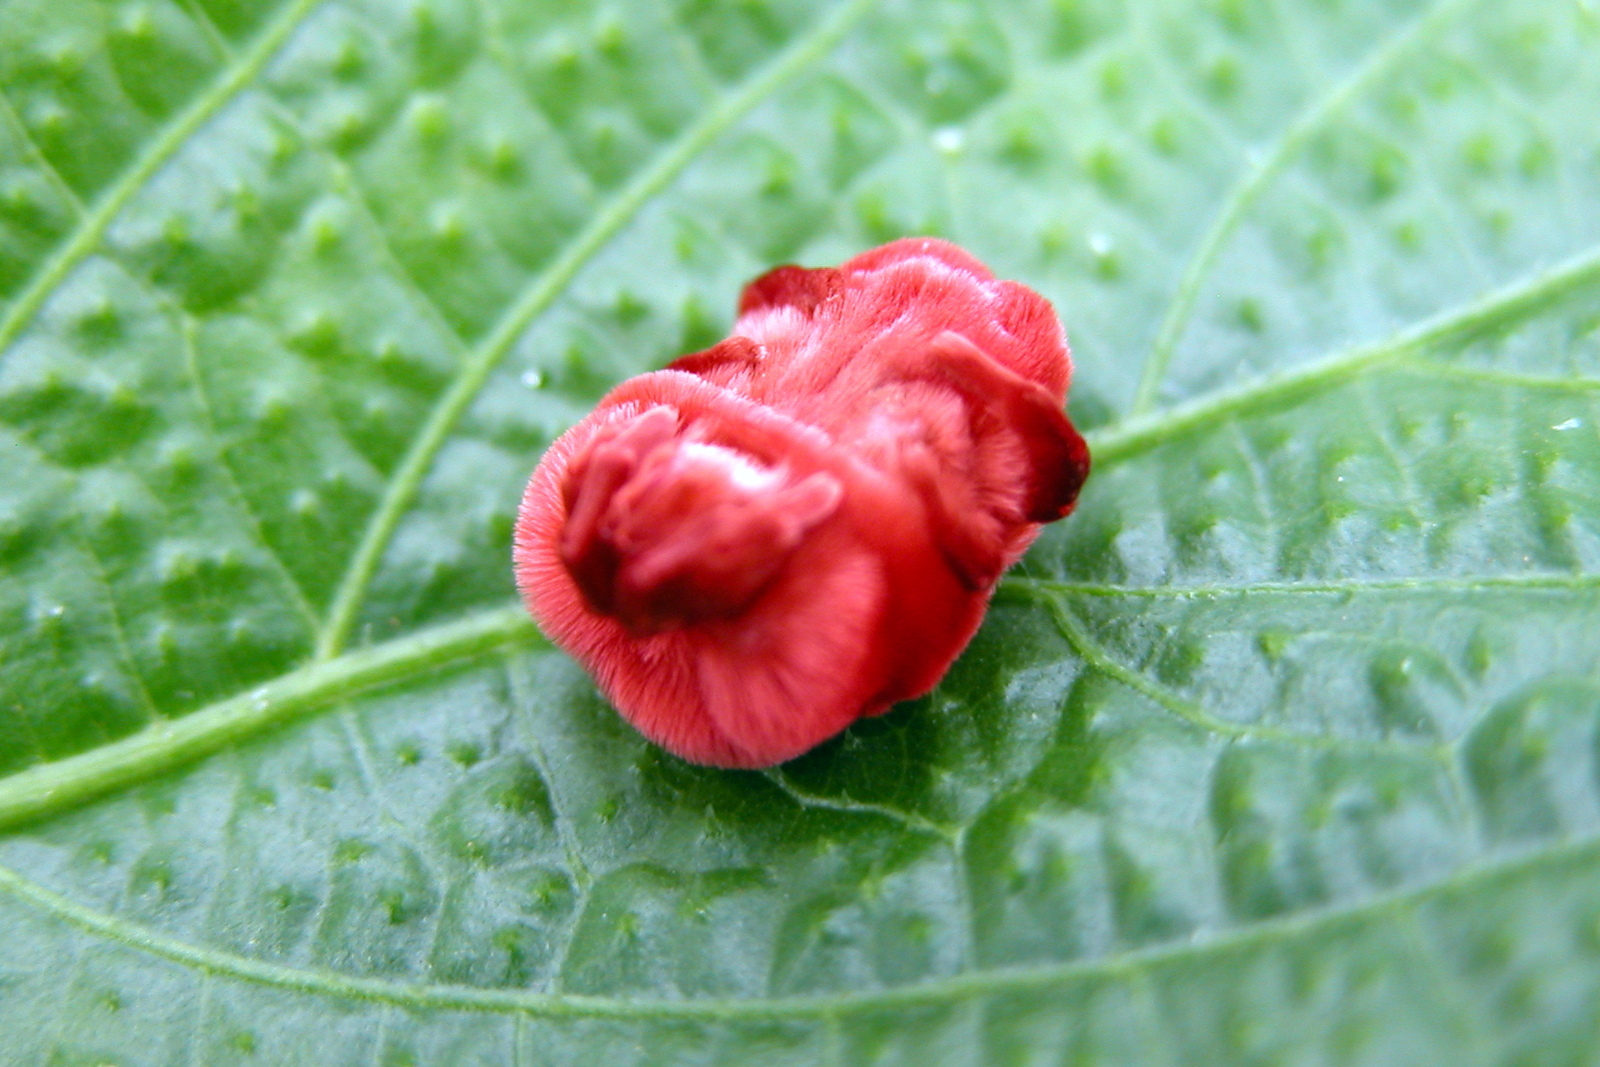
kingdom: Animalia
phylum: Arthropoda
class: Arachnida
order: Trombidiformes
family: Leeuwenhoekiidae
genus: Dinothrombium
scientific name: Dinothrombium
